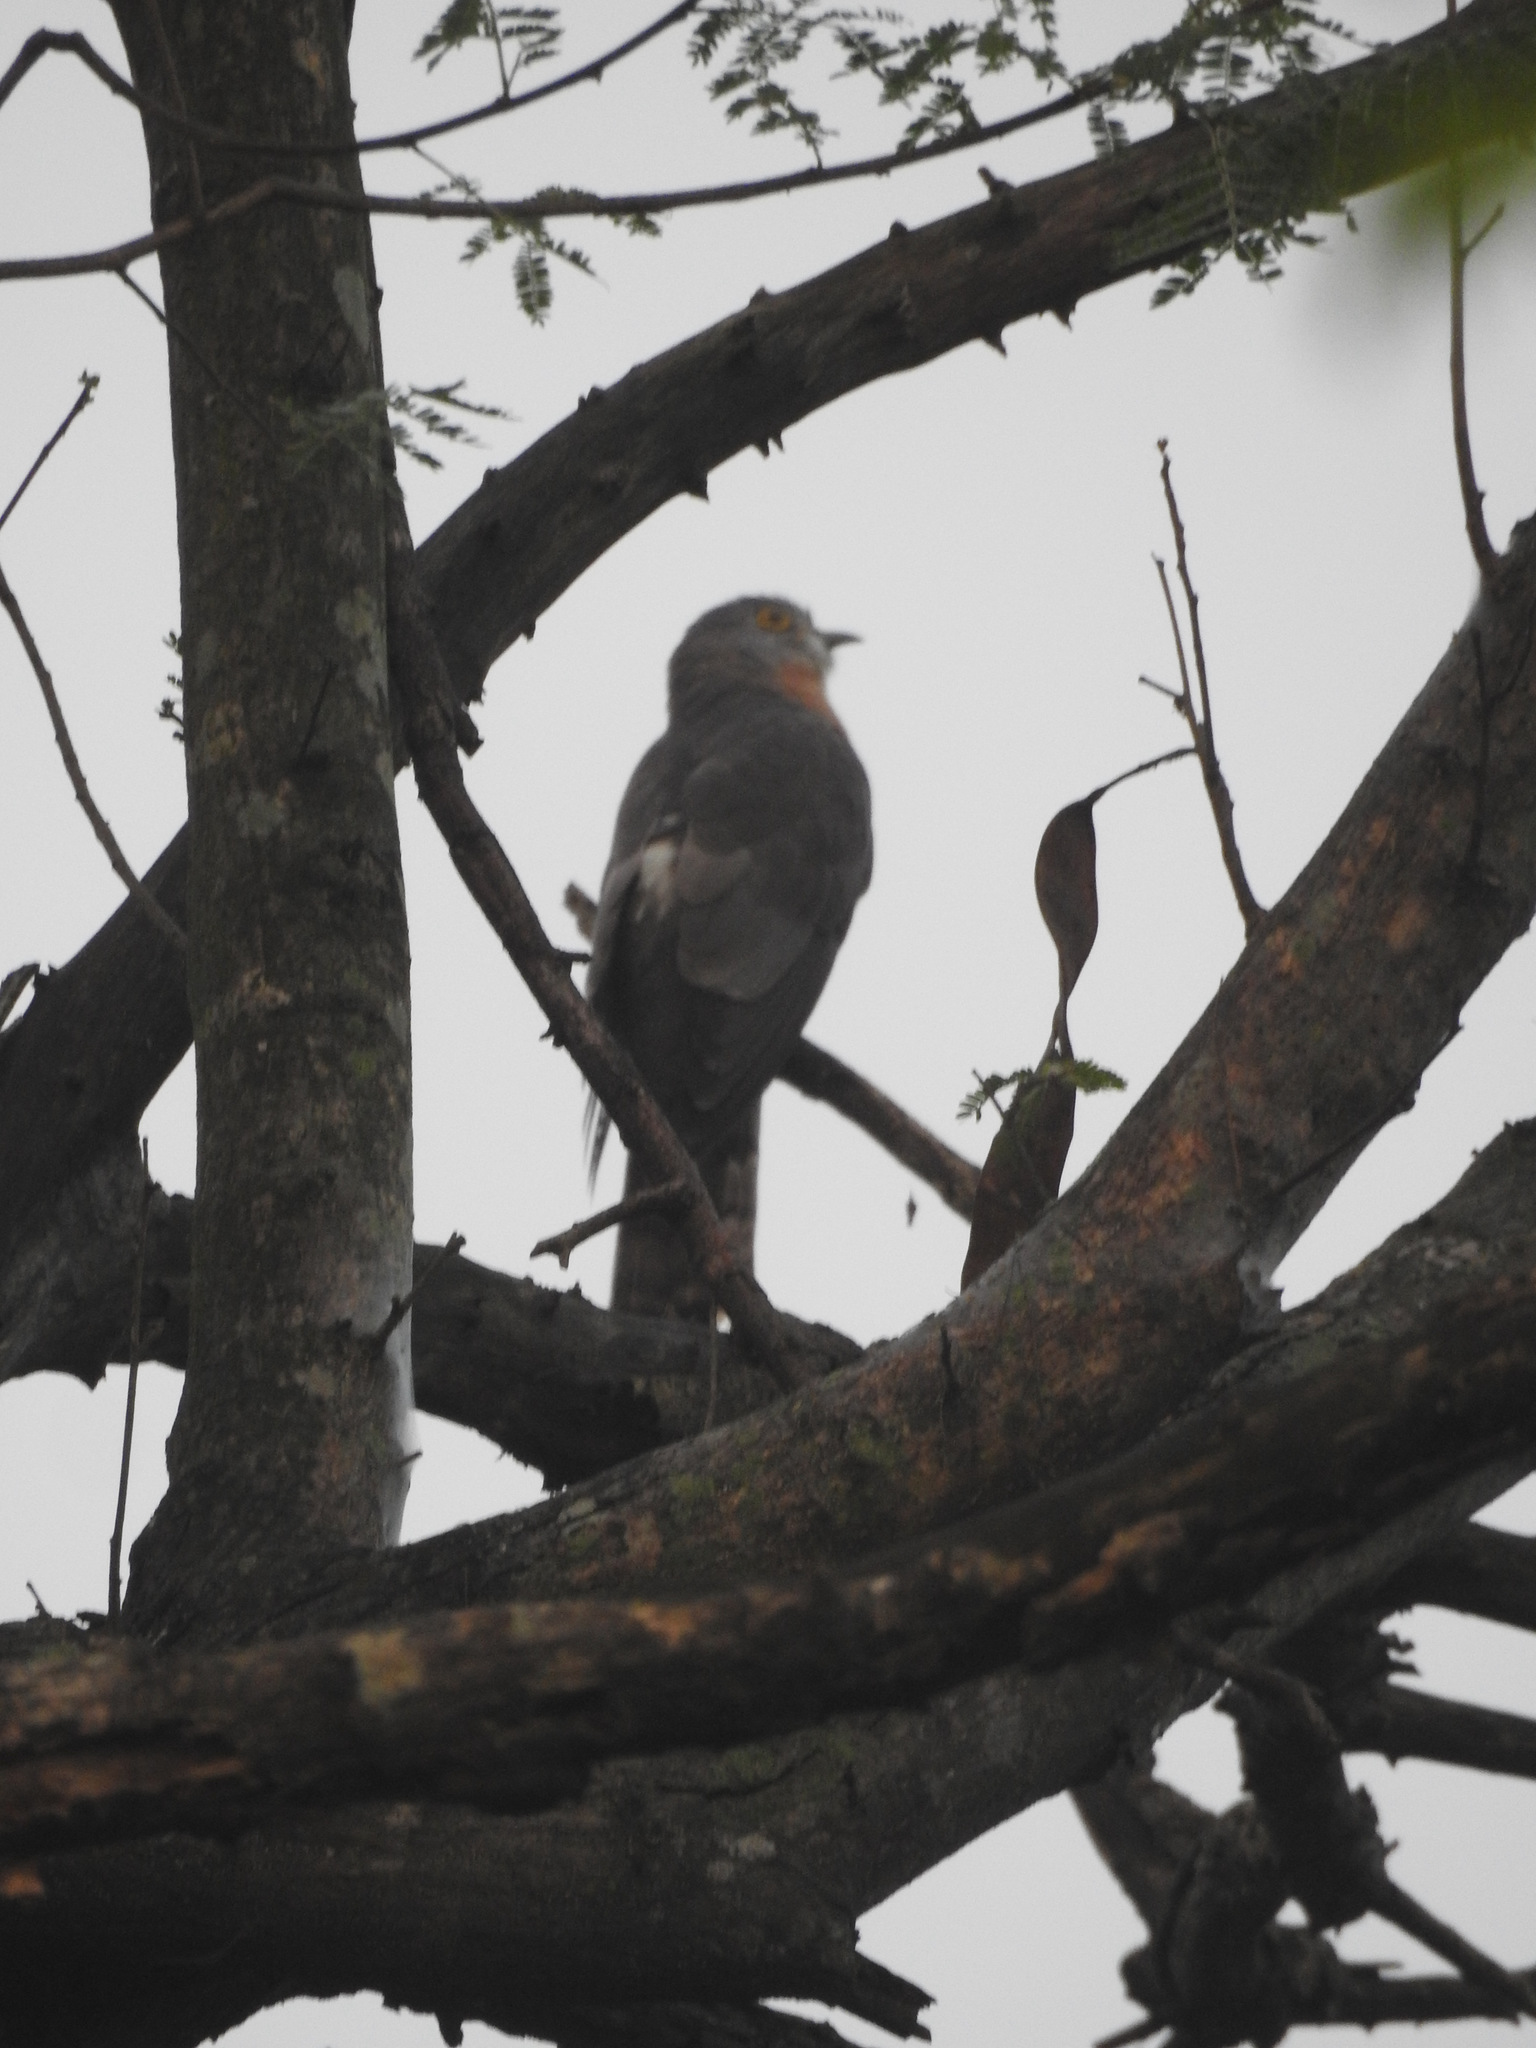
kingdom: Animalia
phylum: Chordata
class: Aves
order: Cuculiformes
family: Cuculidae
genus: Cuculus
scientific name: Cuculus varius
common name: Common hawk cuckoo
